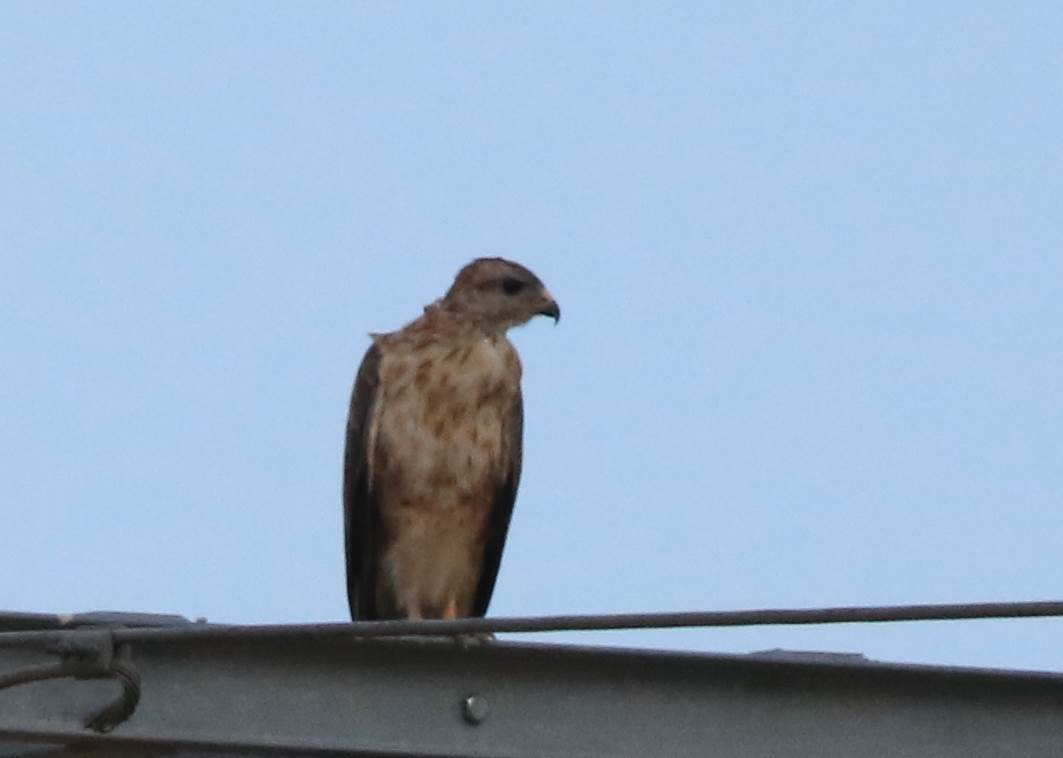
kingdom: Animalia
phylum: Chordata
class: Aves
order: Accipitriformes
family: Accipitridae
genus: Buteo
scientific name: Buteo rufinus
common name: Long-legged buzzard
